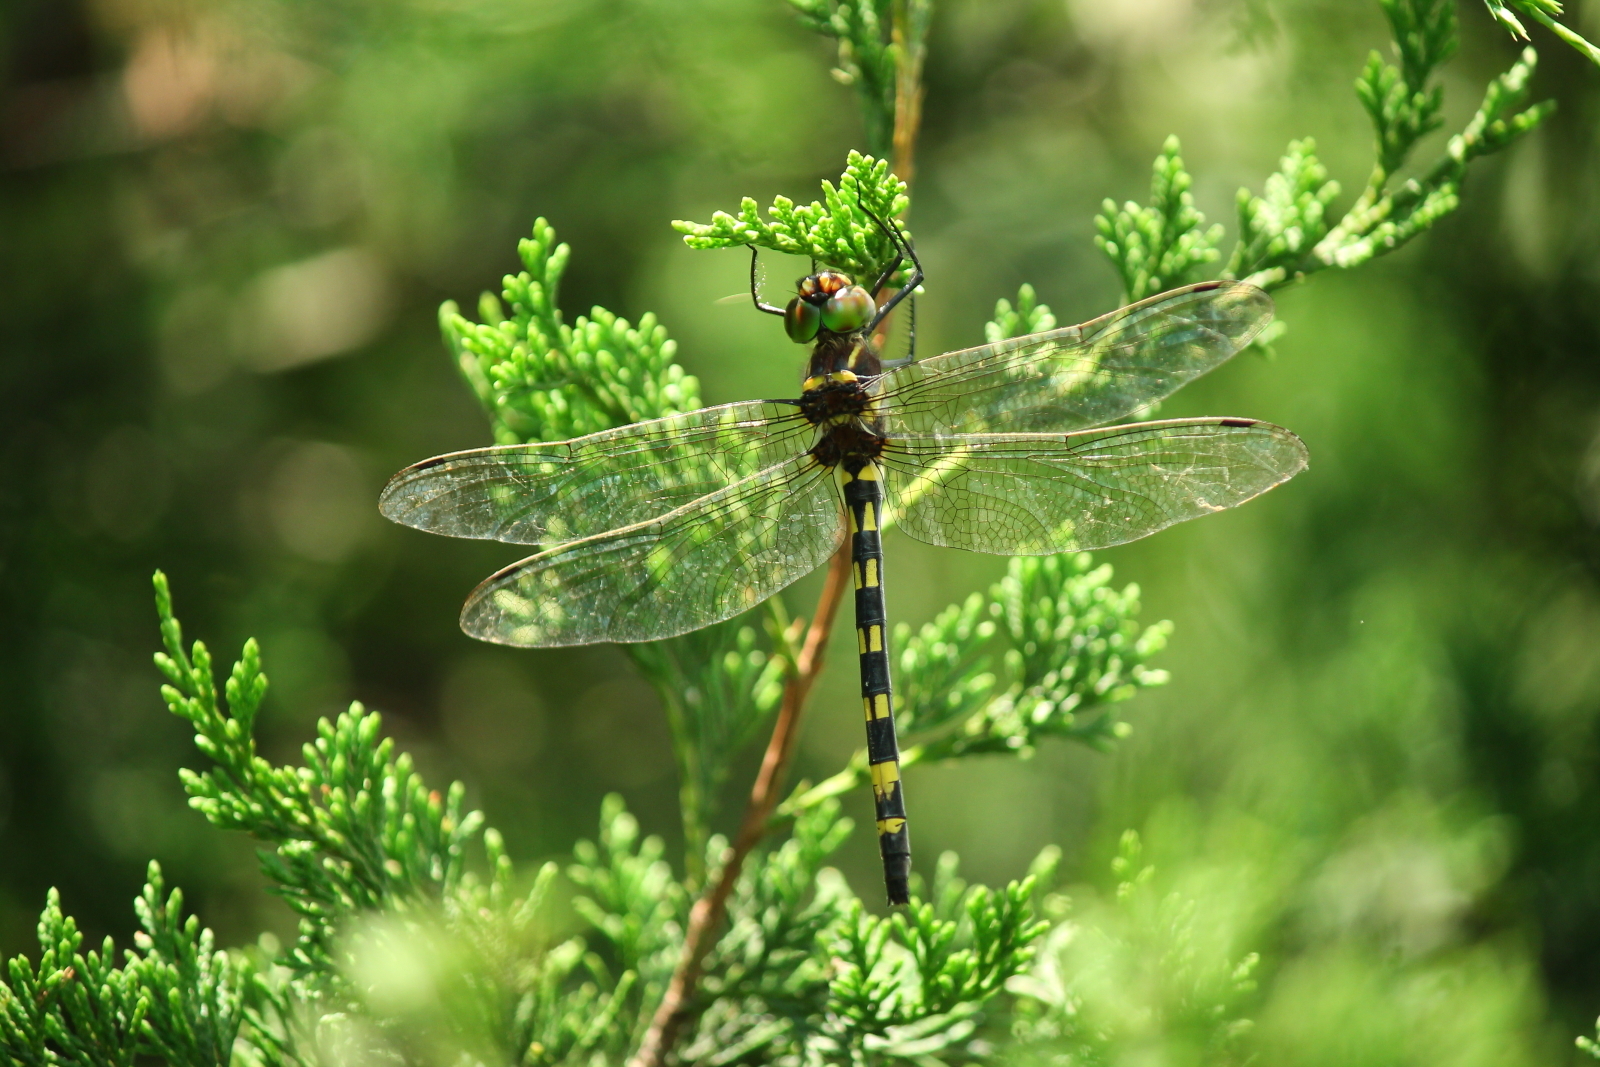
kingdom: Animalia
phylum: Arthropoda
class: Insecta
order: Odonata
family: Macromiidae
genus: Macromia
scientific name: Macromia pacifica
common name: Gilded river cruiser
